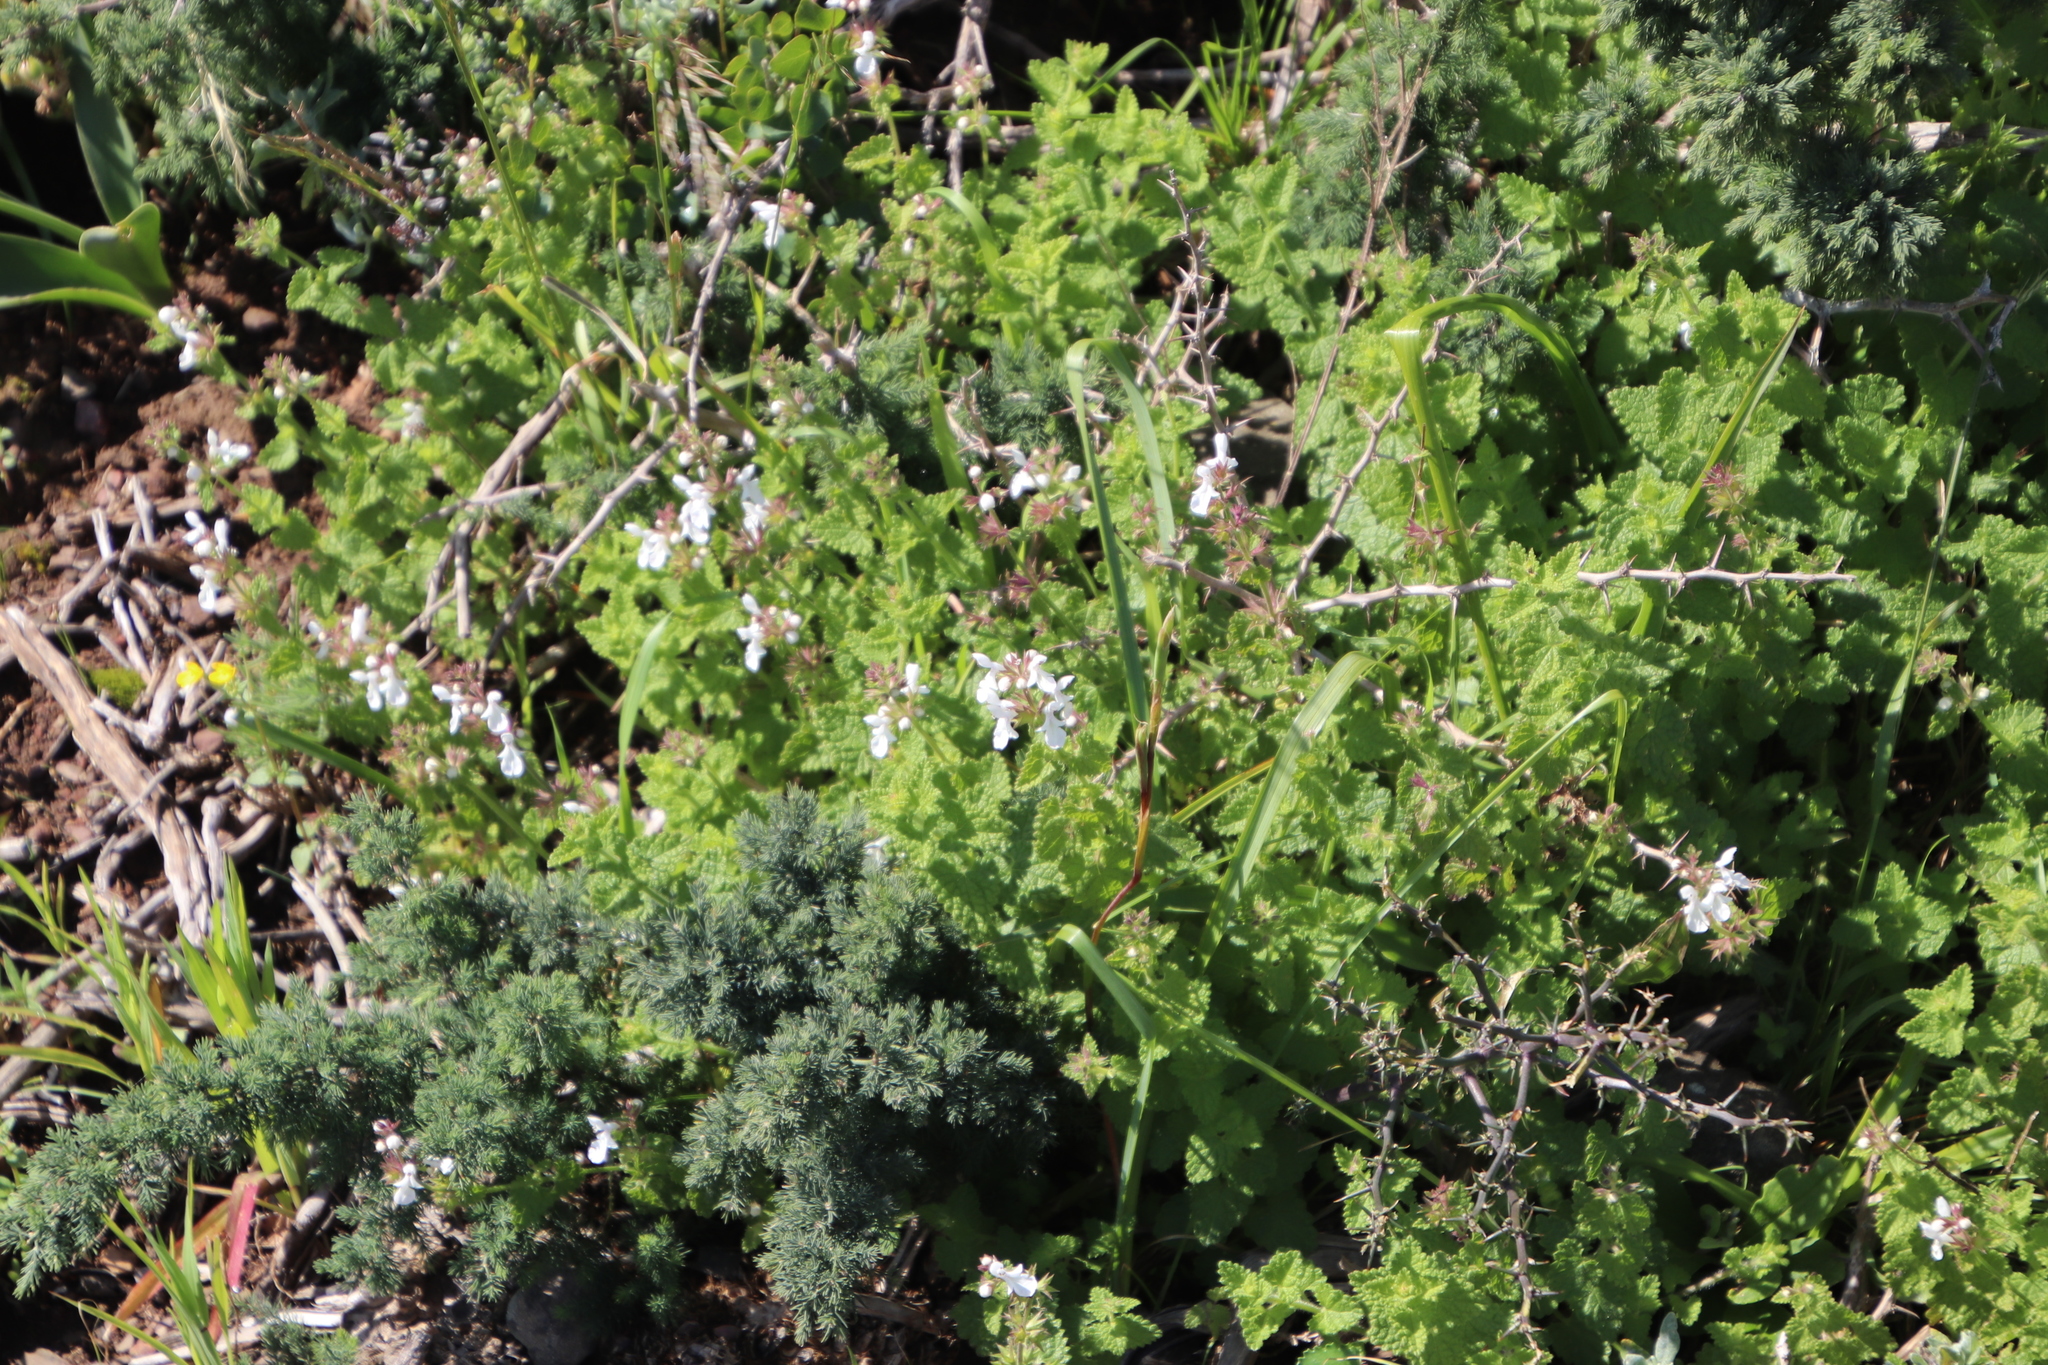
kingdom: Plantae
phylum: Tracheophyta
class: Magnoliopsida
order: Lamiales
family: Lamiaceae
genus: Stachys
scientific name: Stachys aethiopica
